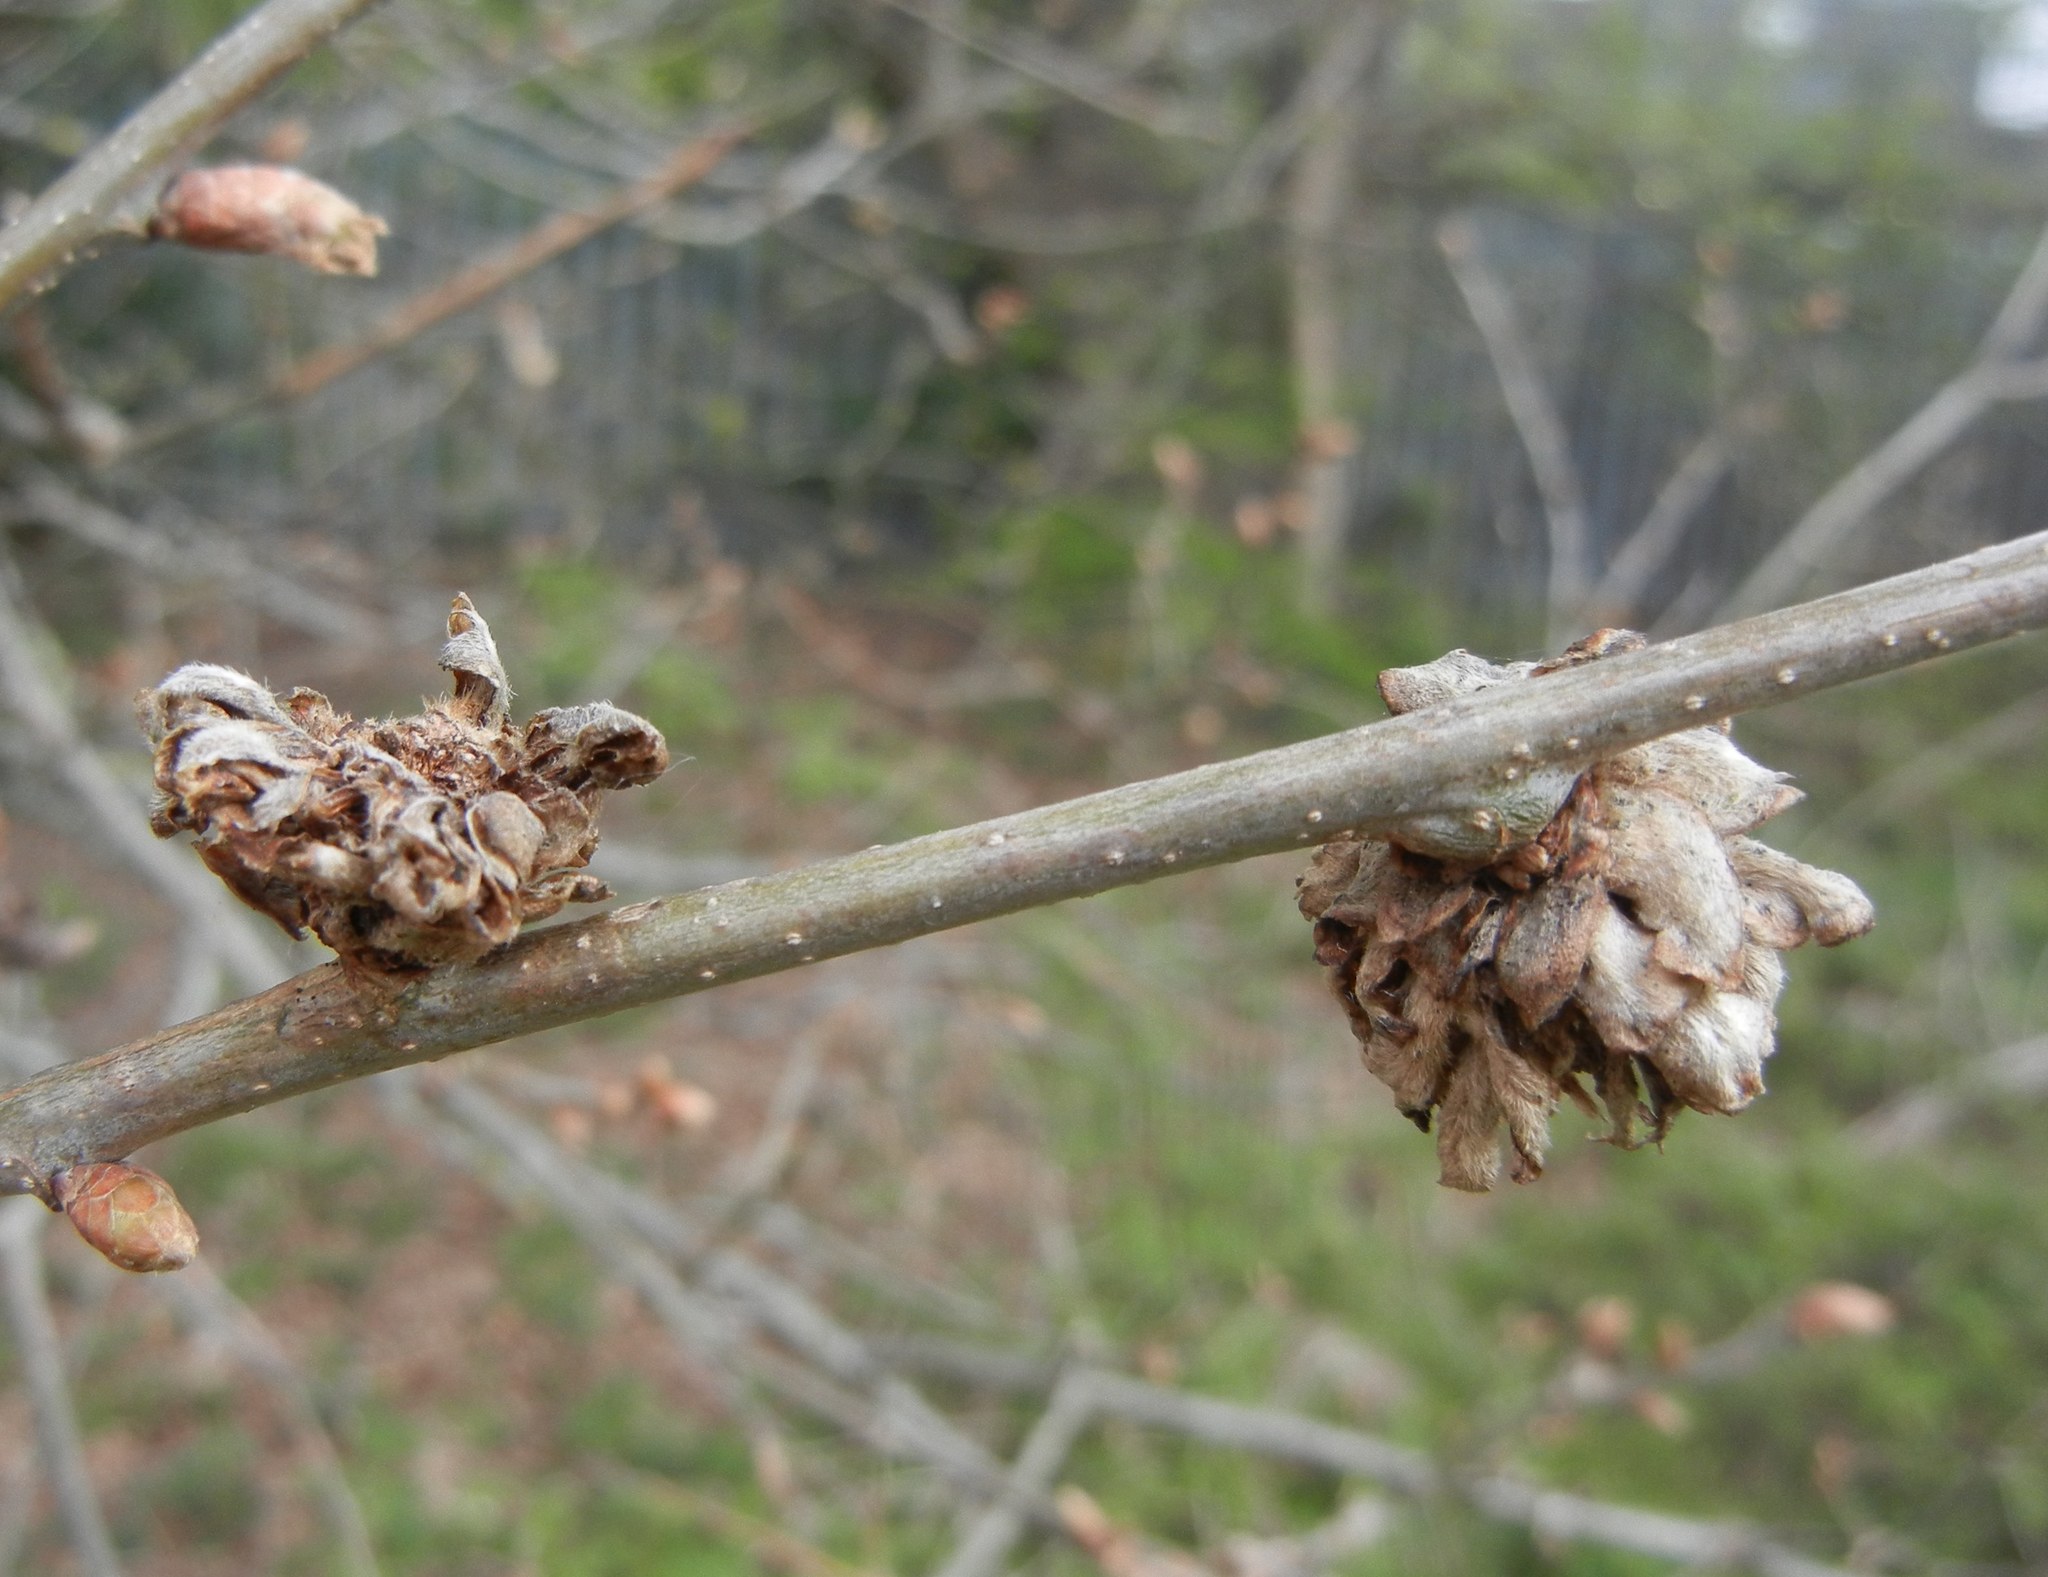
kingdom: Animalia
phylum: Arthropoda
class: Insecta
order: Hymenoptera
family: Cynipidae
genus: Andricus
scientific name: Andricus foecundatrix
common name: Artichoke gall
